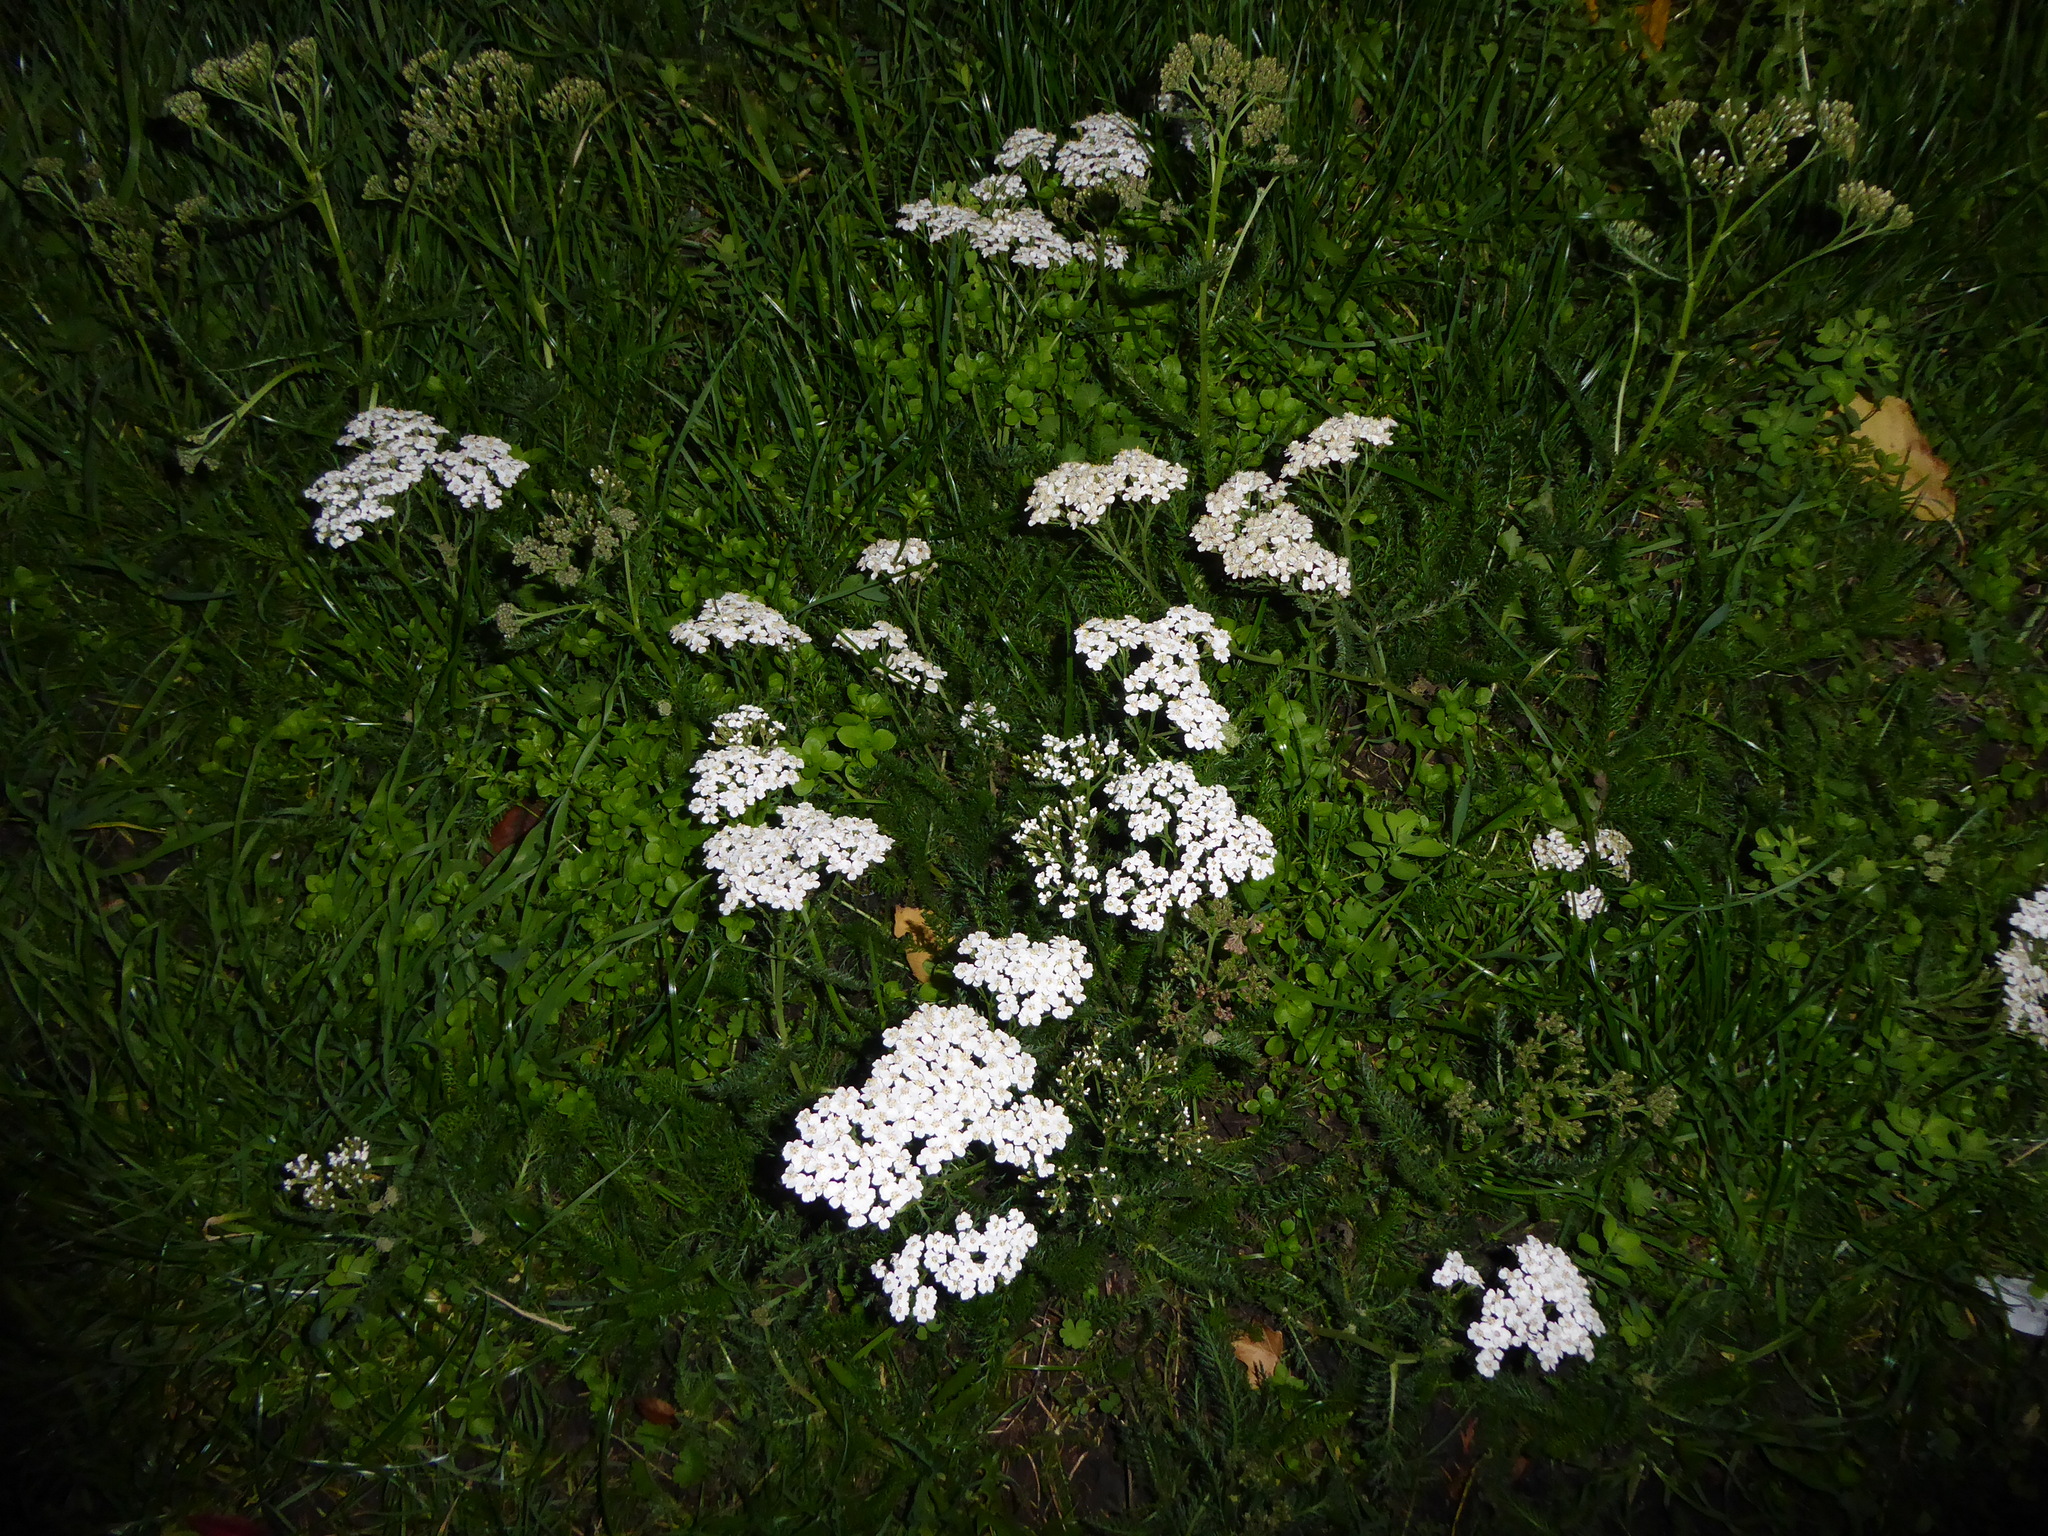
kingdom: Plantae
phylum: Tracheophyta
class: Magnoliopsida
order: Asterales
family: Asteraceae
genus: Achillea
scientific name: Achillea millefolium
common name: Yarrow
